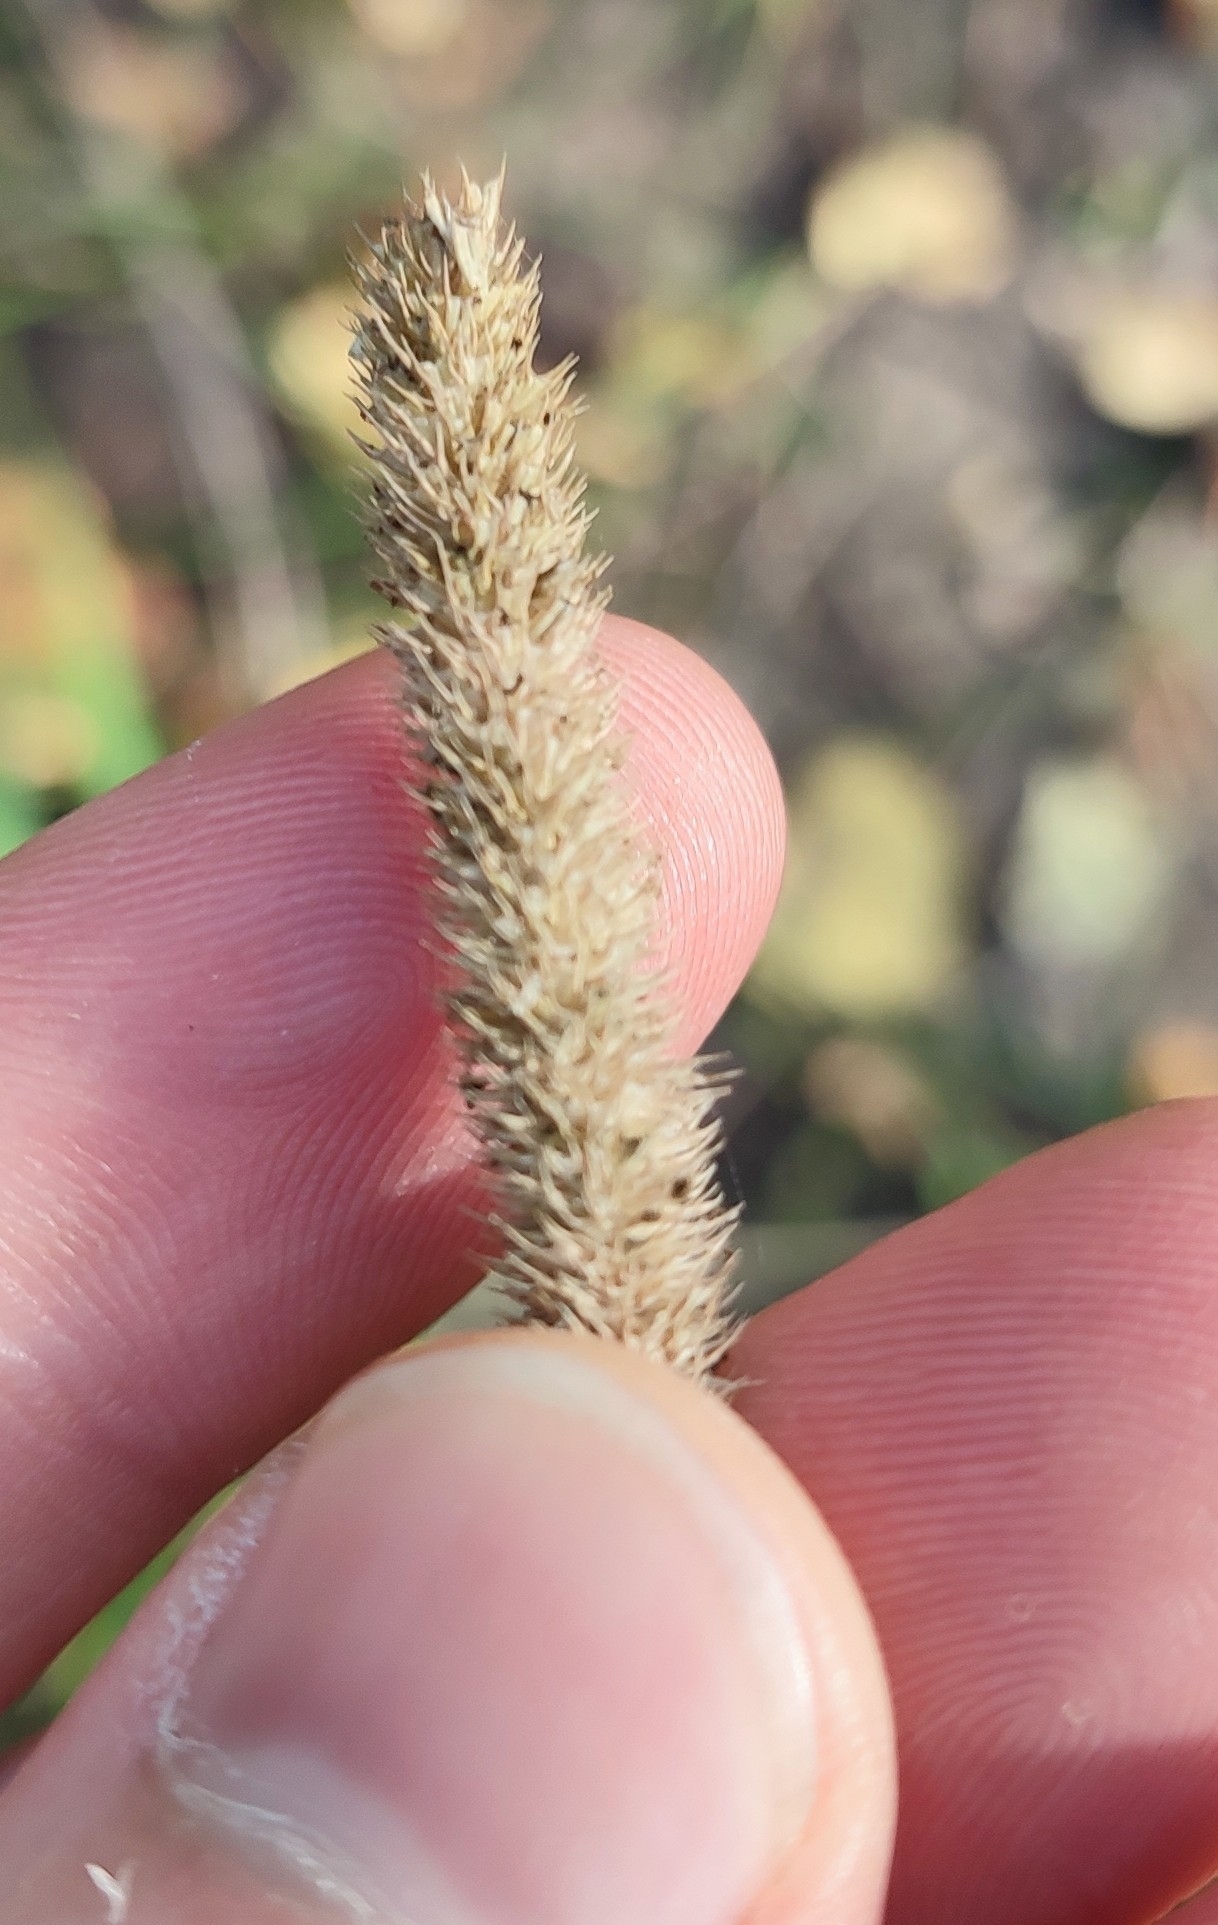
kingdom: Plantae
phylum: Tracheophyta
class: Liliopsida
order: Poales
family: Poaceae
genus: Phleum
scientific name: Phleum pratense
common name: Timothy grass
